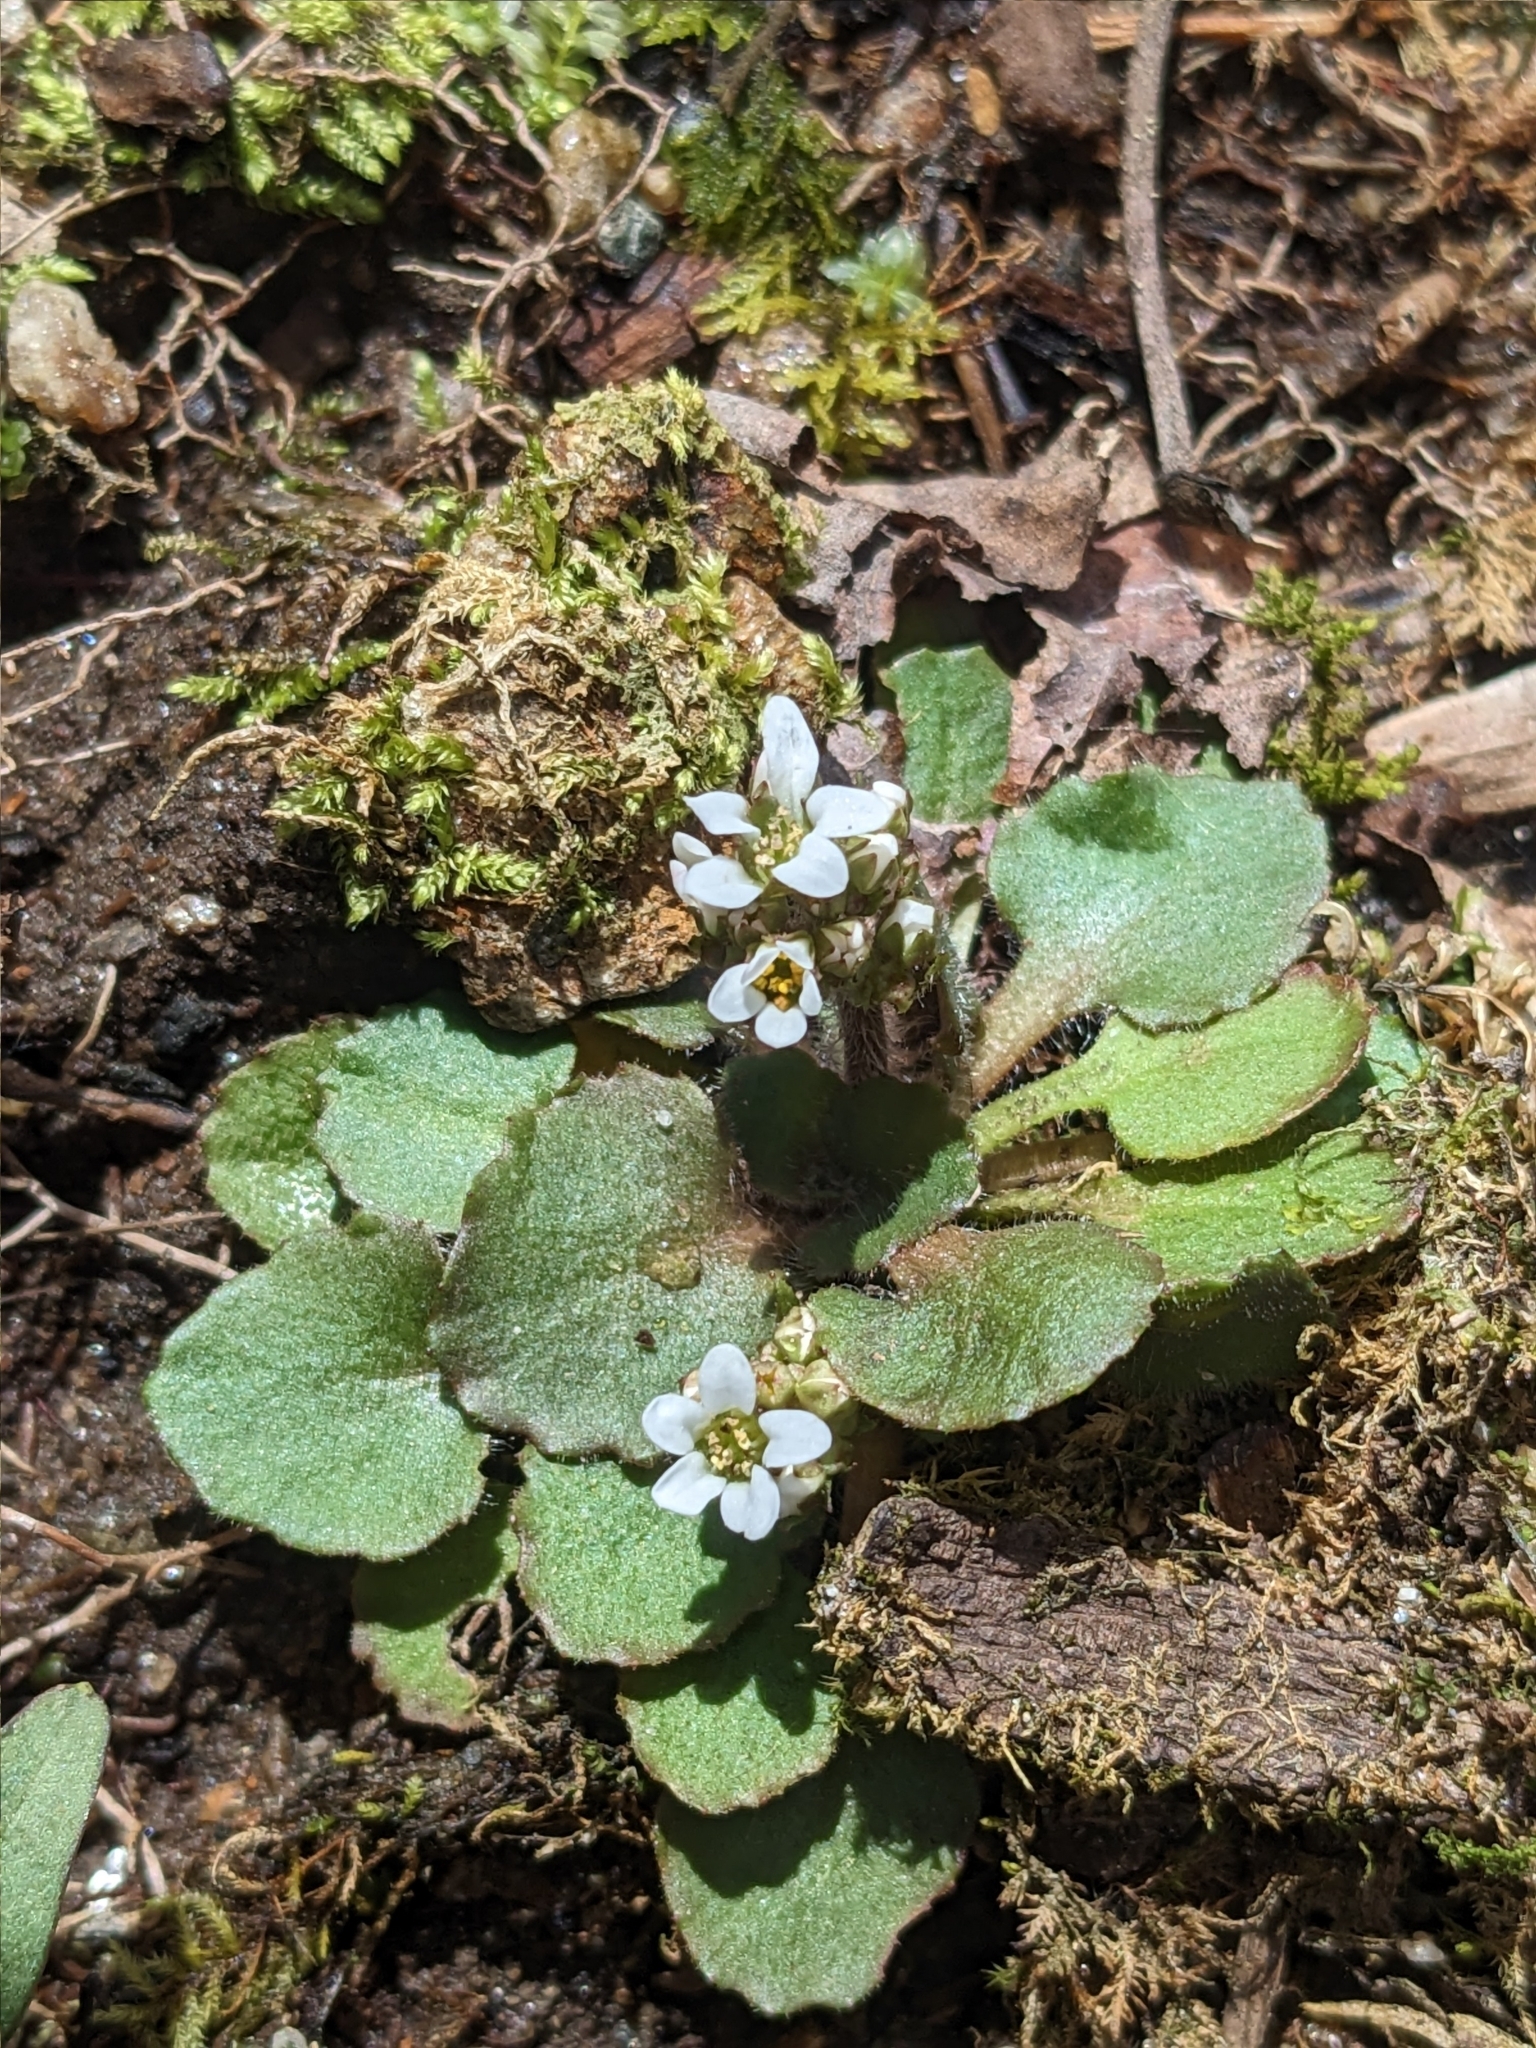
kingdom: Plantae
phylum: Tracheophyta
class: Magnoliopsida
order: Saxifragales
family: Saxifragaceae
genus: Micranthes
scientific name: Micranthes virginiensis
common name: Early saxifrage
